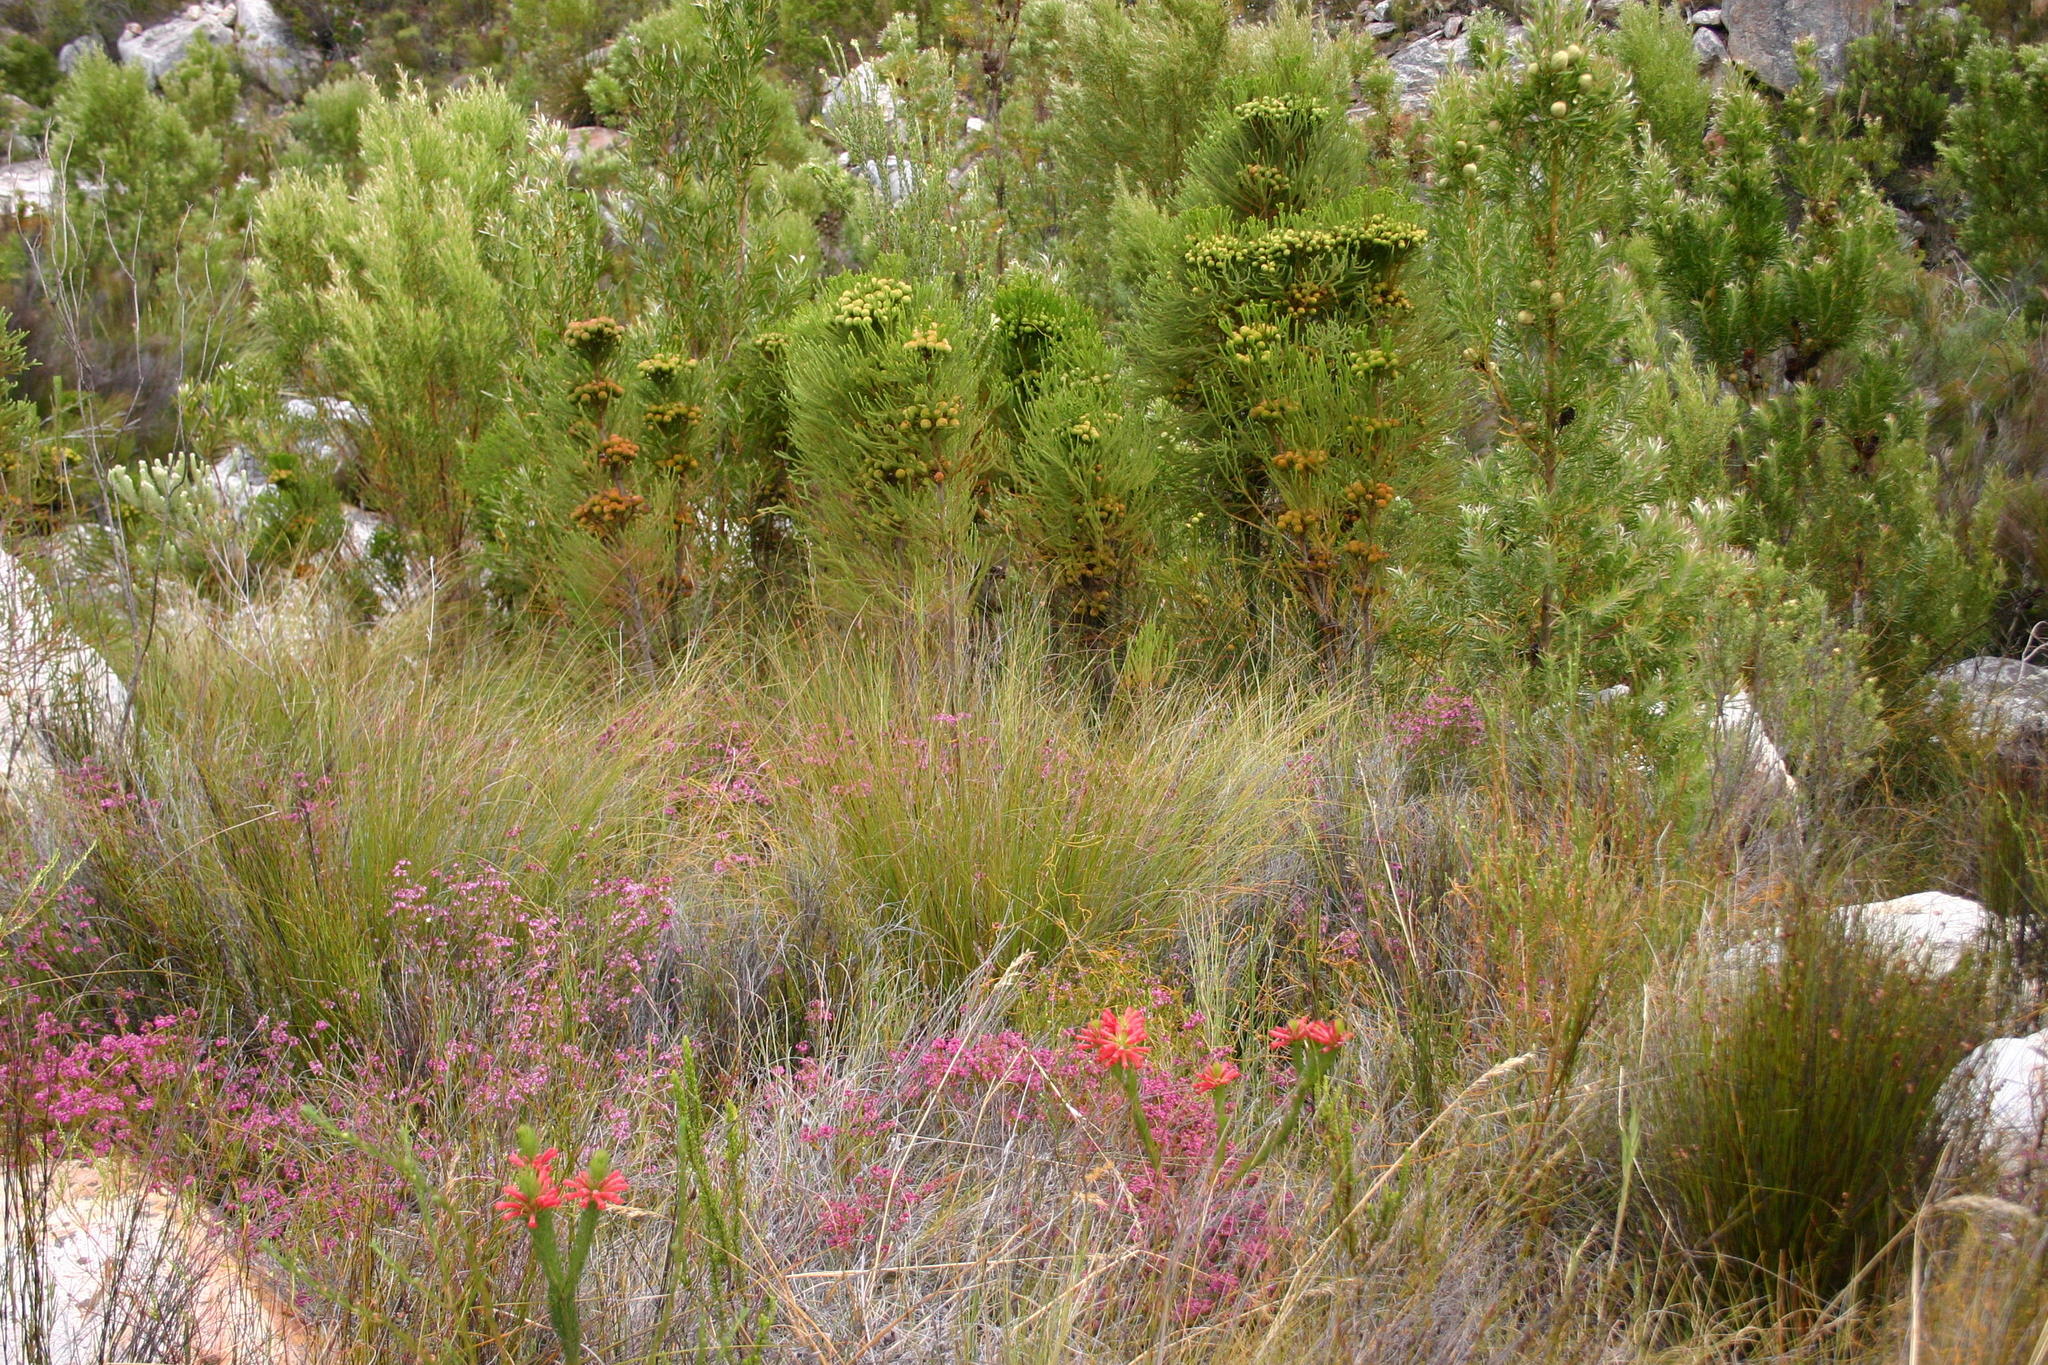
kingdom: Plantae
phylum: Tracheophyta
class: Magnoliopsida
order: Ericales
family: Ericaceae
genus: Erica
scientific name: Erica vestita
